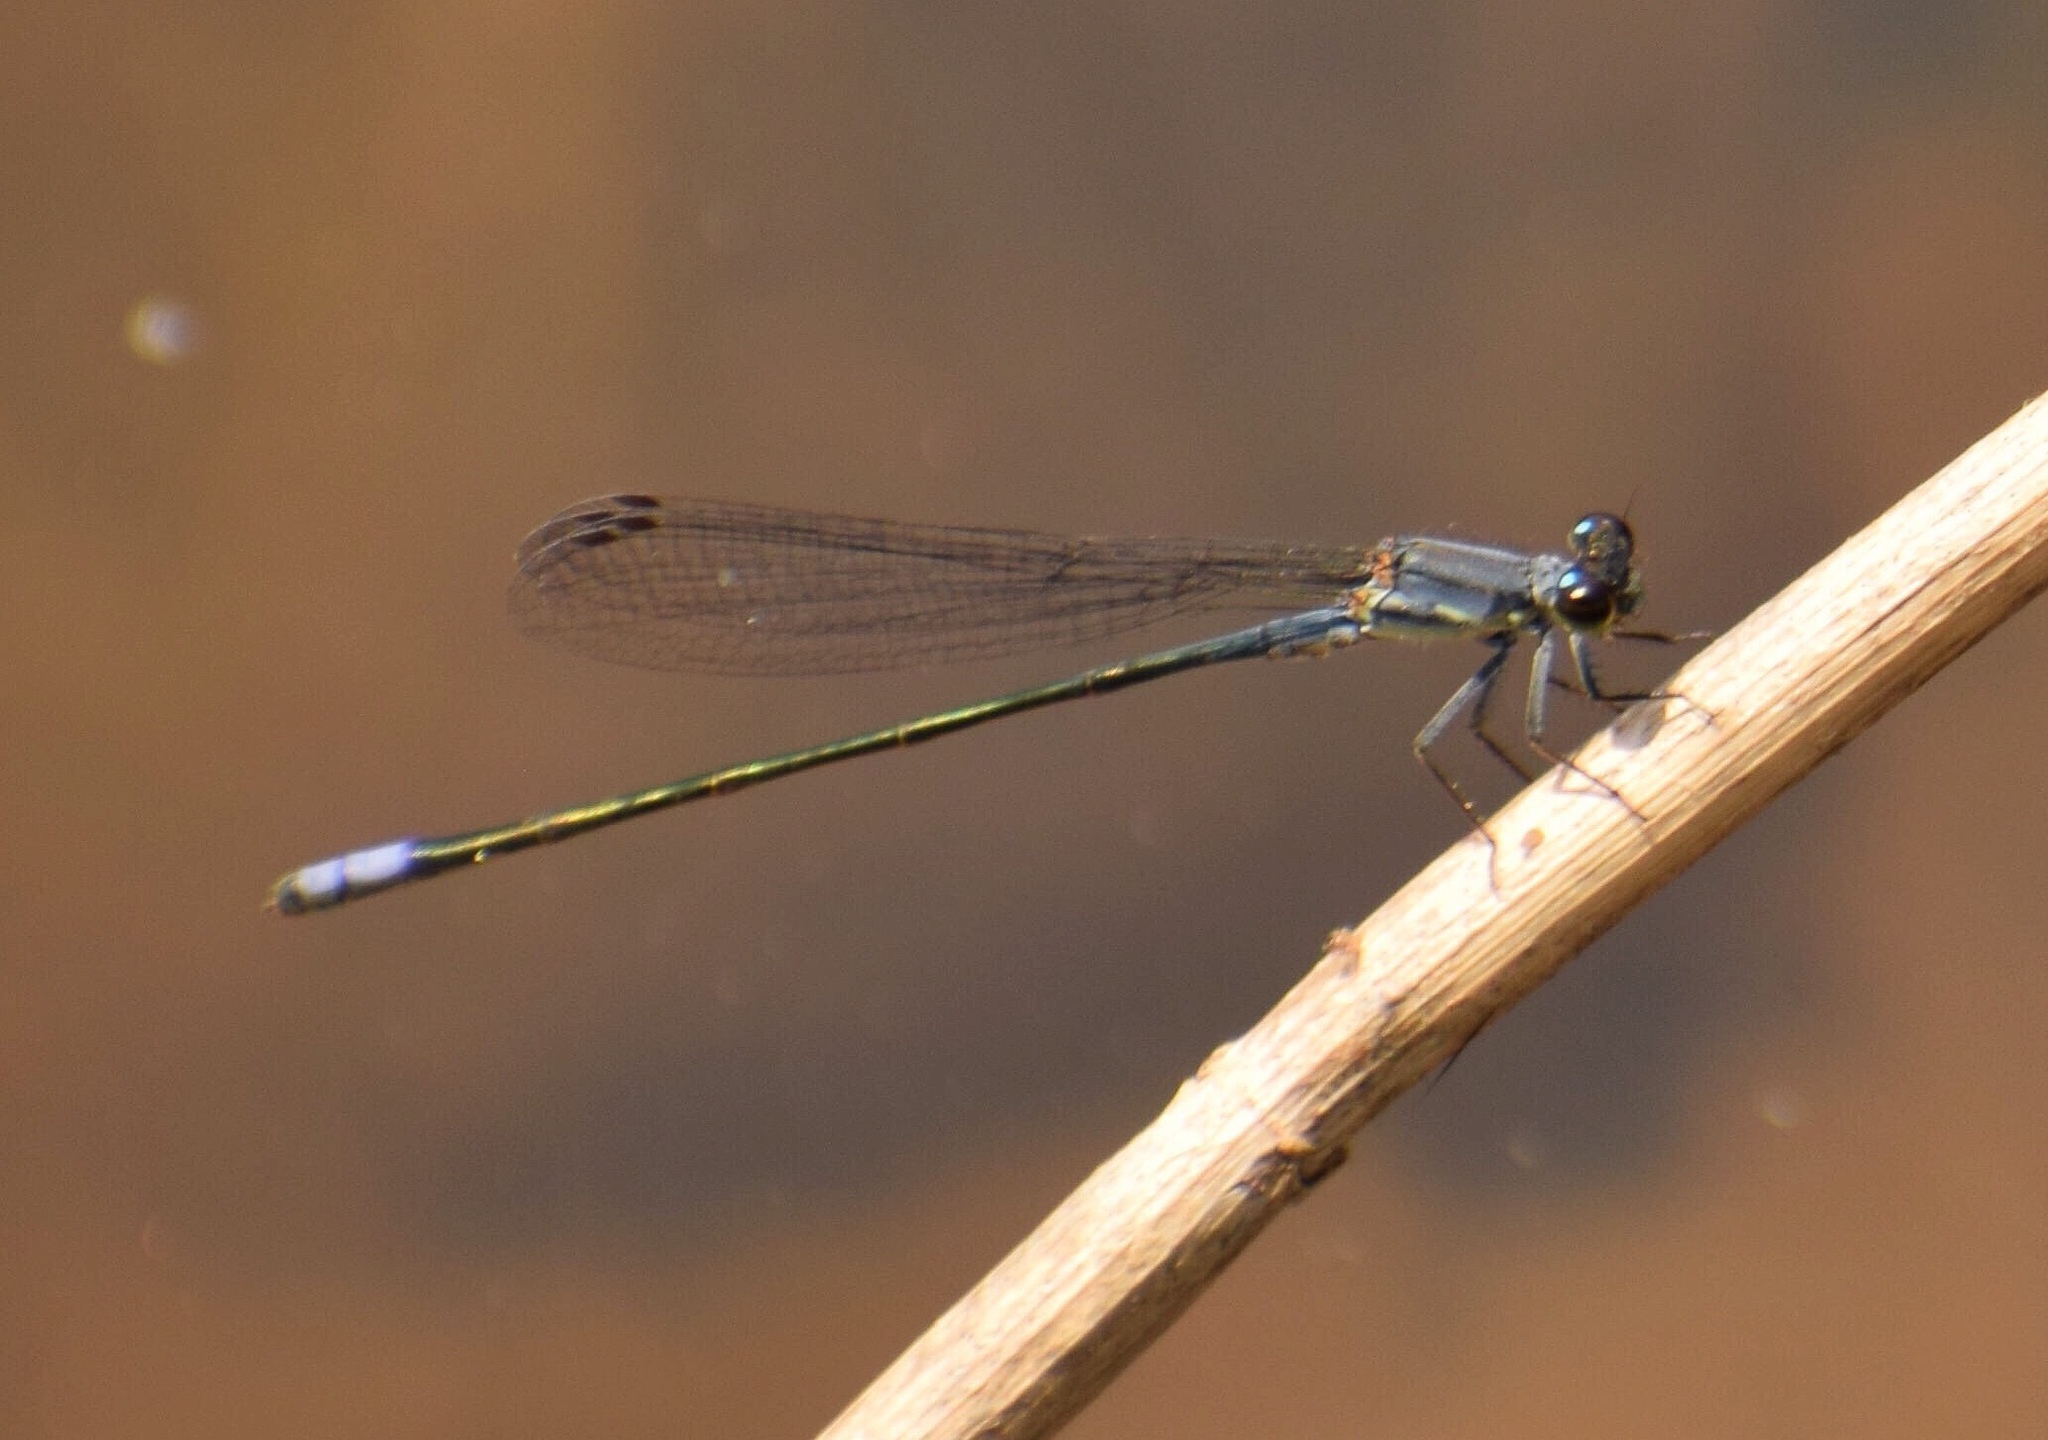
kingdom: Animalia
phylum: Arthropoda
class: Insecta
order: Odonata
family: Coenagrionidae
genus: Pseudagrion
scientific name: Pseudagrion salisburyense
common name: Slate sprite
